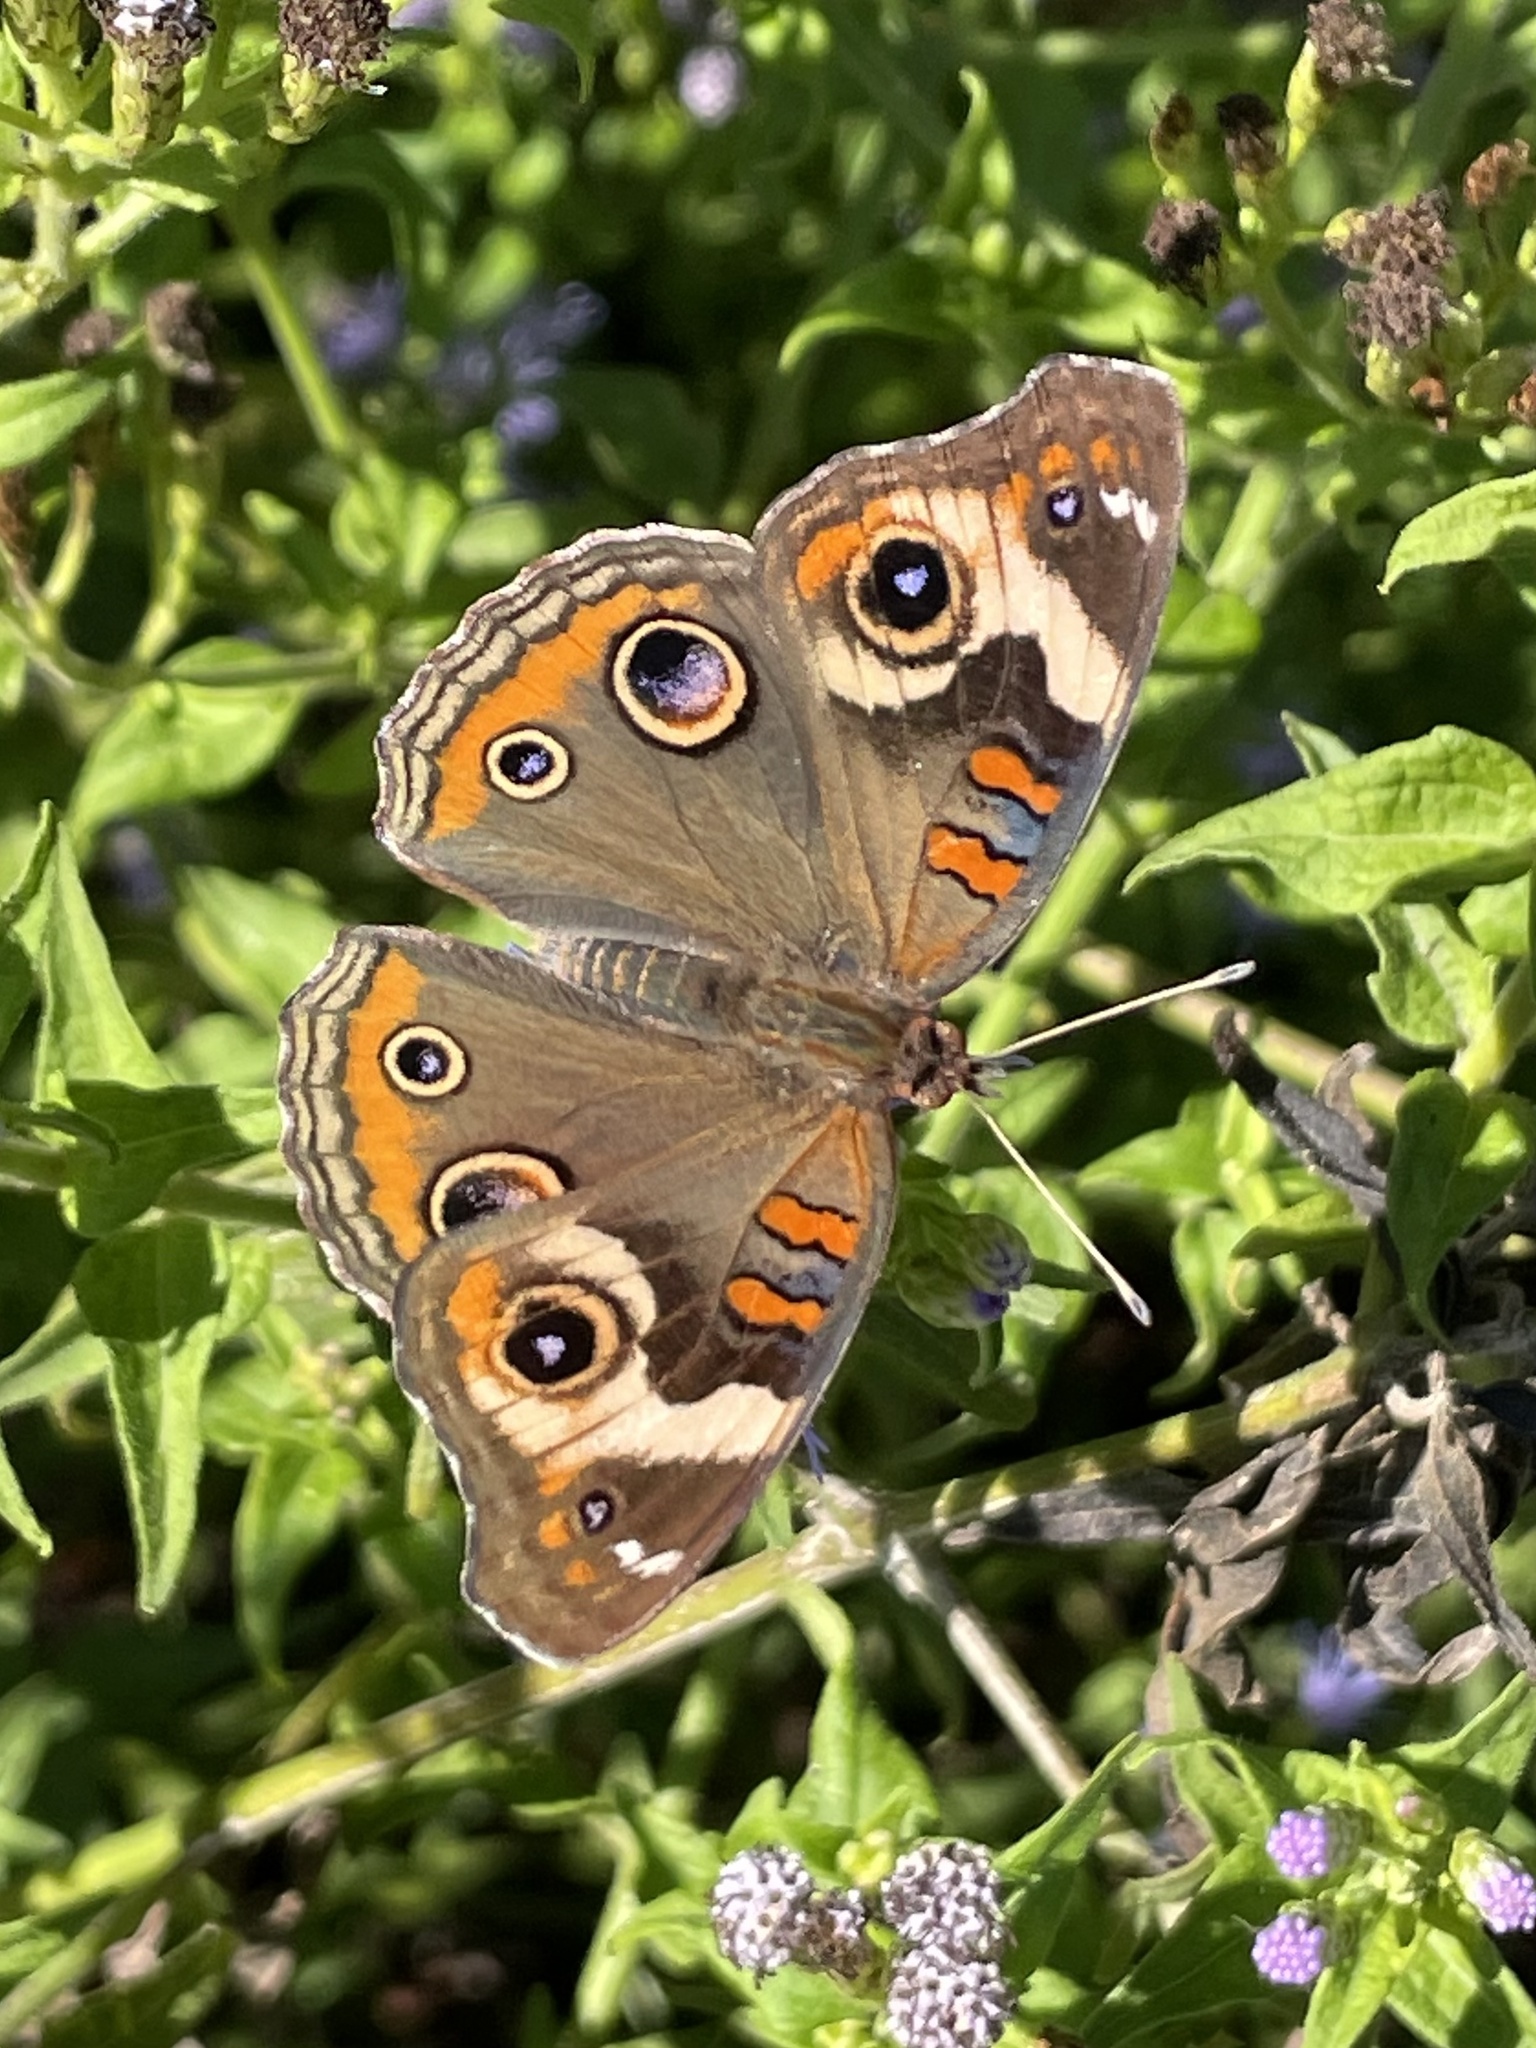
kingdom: Animalia
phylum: Arthropoda
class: Insecta
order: Lepidoptera
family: Nymphalidae
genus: Junonia
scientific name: Junonia coenia
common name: Common buckeye
